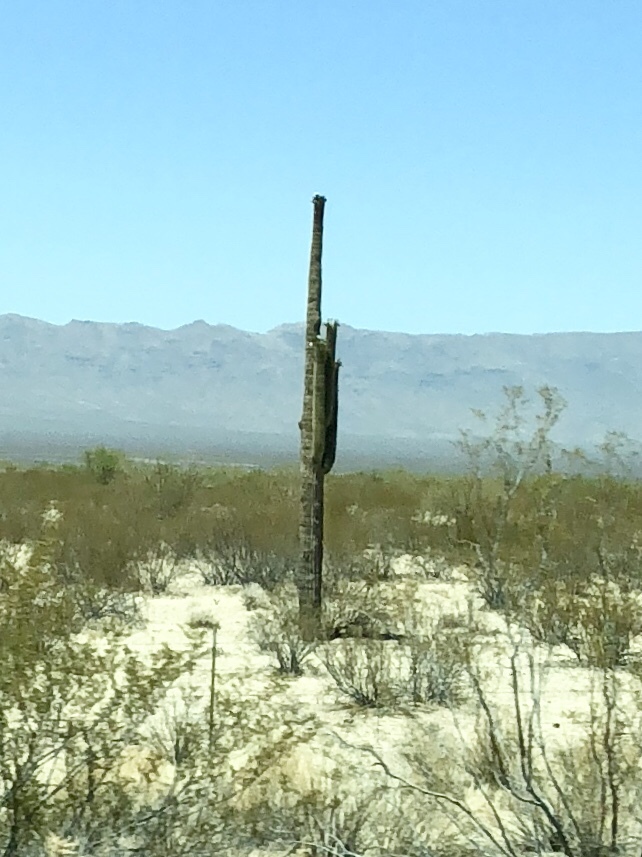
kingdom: Plantae
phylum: Tracheophyta
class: Magnoliopsida
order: Caryophyllales
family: Cactaceae
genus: Carnegiea
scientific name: Carnegiea gigantea
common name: Saguaro
